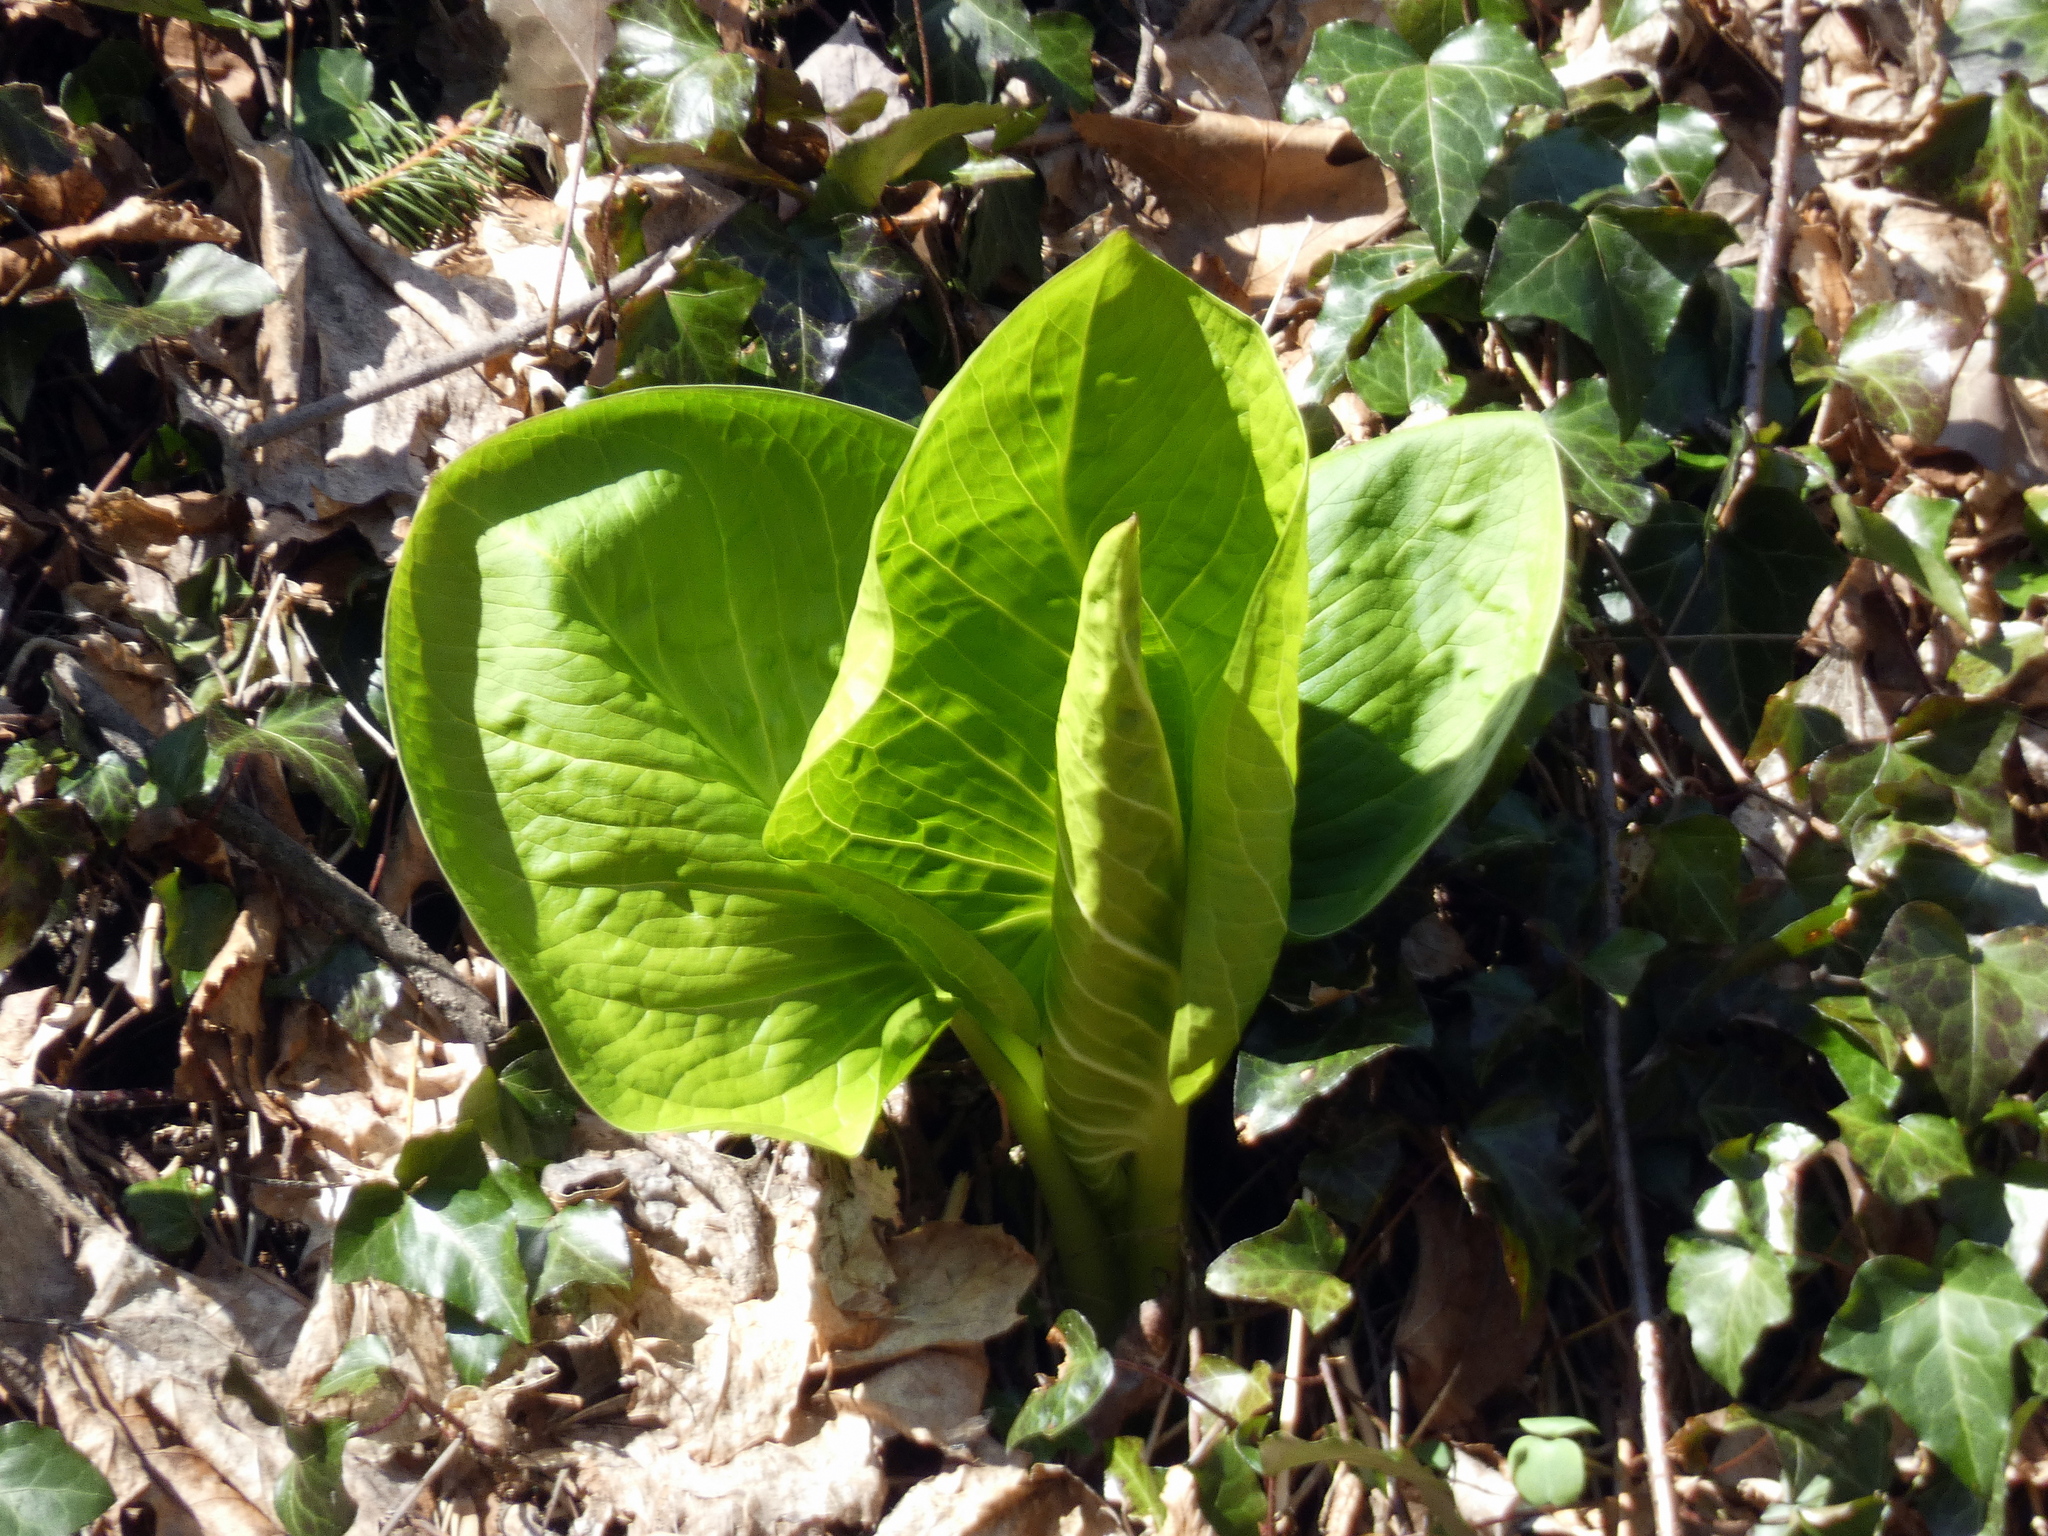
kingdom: Plantae
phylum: Tracheophyta
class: Liliopsida
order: Alismatales
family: Araceae
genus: Symplocarpus
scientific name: Symplocarpus foetidus
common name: Eastern skunk cabbage
